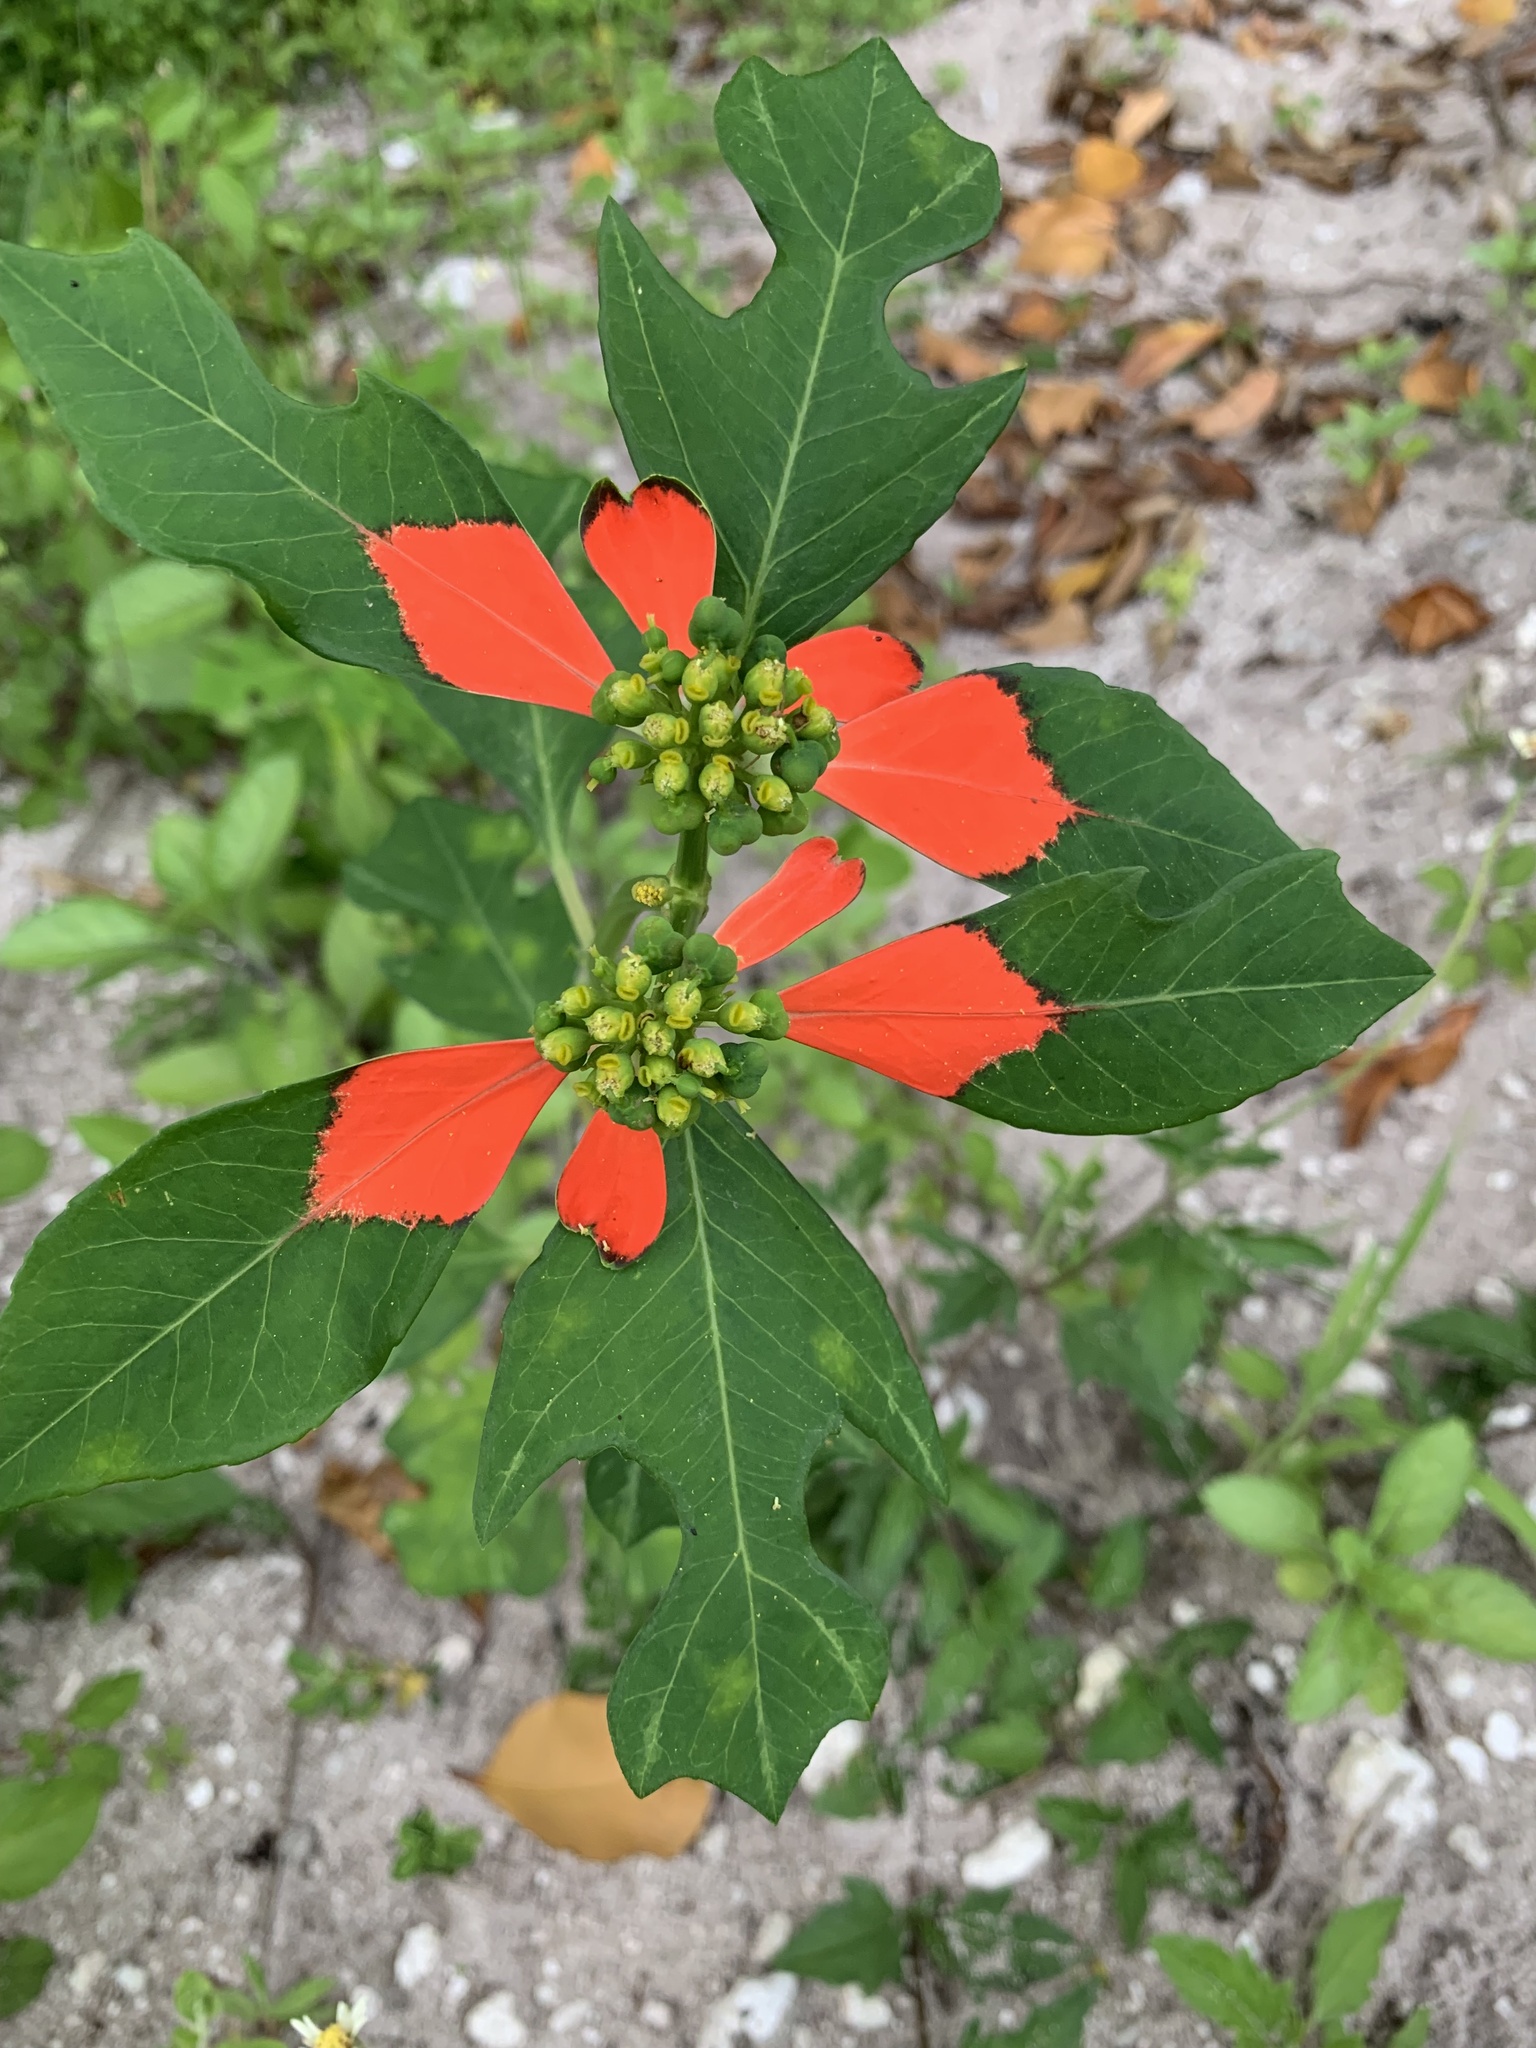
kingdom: Plantae
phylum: Tracheophyta
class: Magnoliopsida
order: Malpighiales
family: Euphorbiaceae
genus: Euphorbia
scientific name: Euphorbia heterophylla
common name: Mexican fireplant
